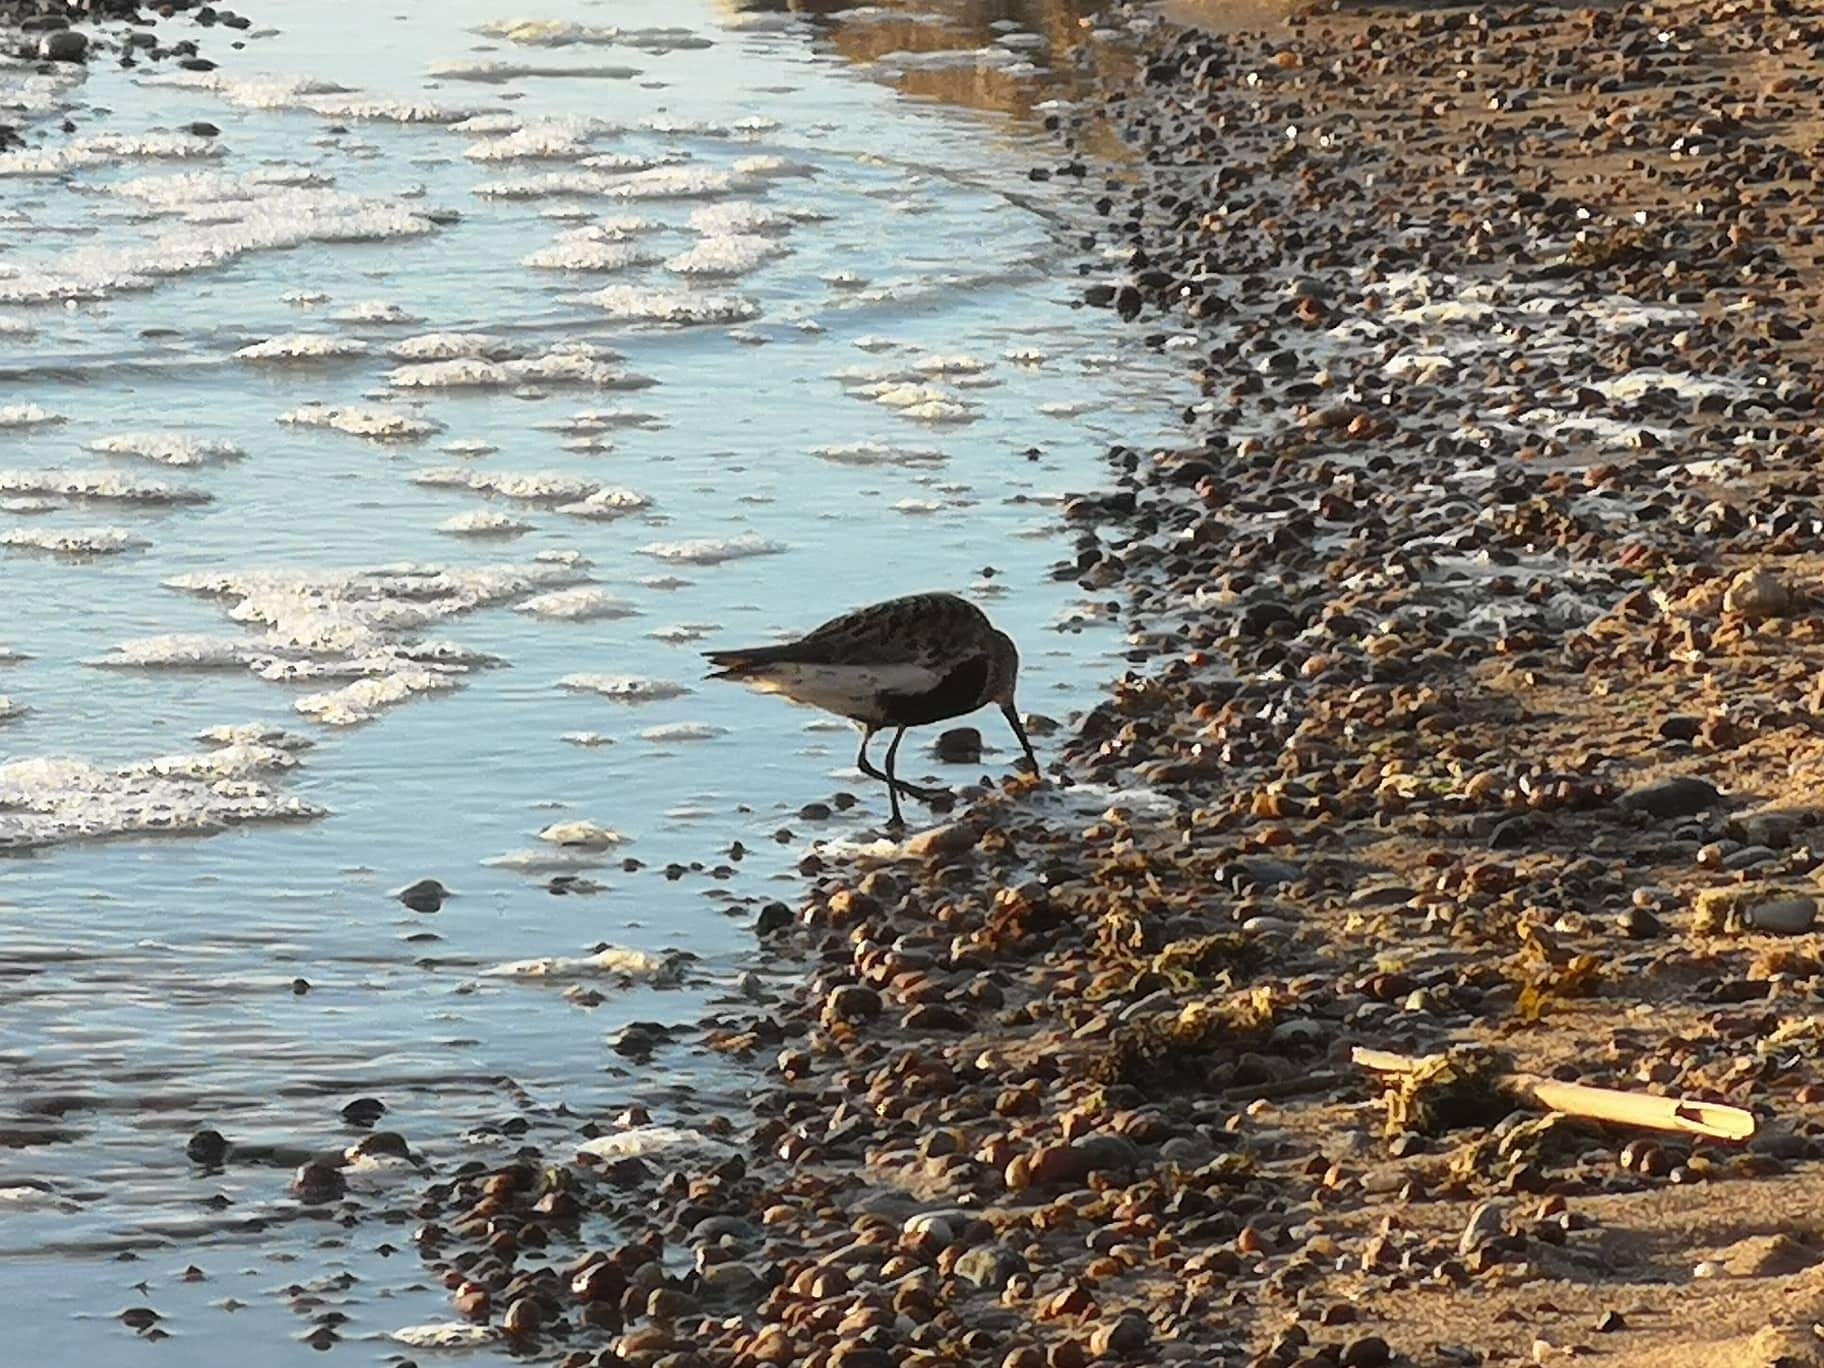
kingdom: Animalia
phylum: Chordata
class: Aves
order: Charadriiformes
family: Scolopacidae
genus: Calidris
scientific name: Calidris alpina
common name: Dunlin
